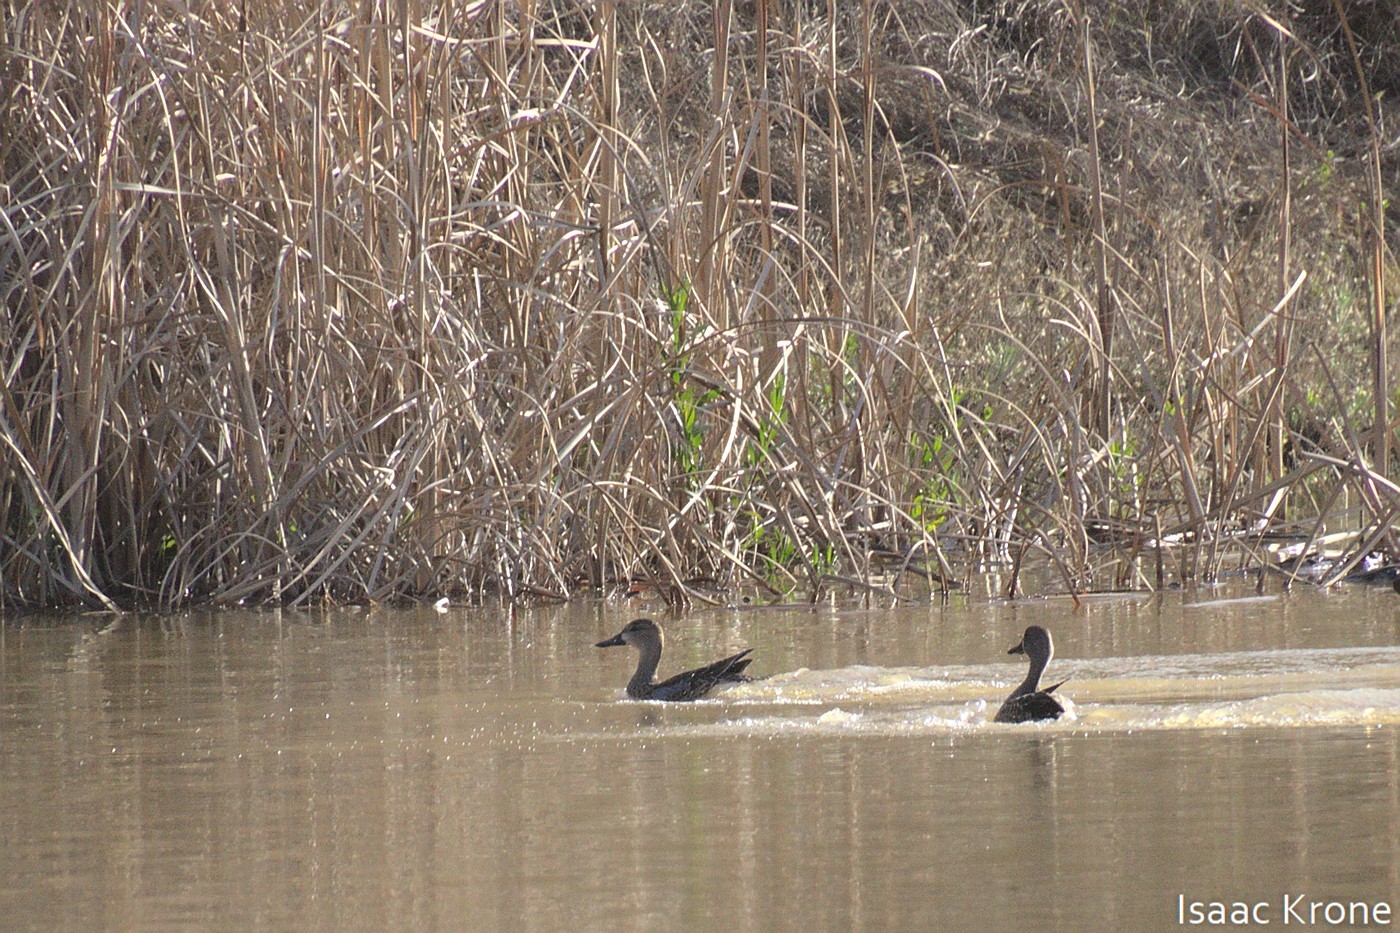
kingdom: Animalia
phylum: Chordata
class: Aves
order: Anseriformes
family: Anatidae
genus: Spatula
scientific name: Spatula discors
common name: Blue-winged teal
